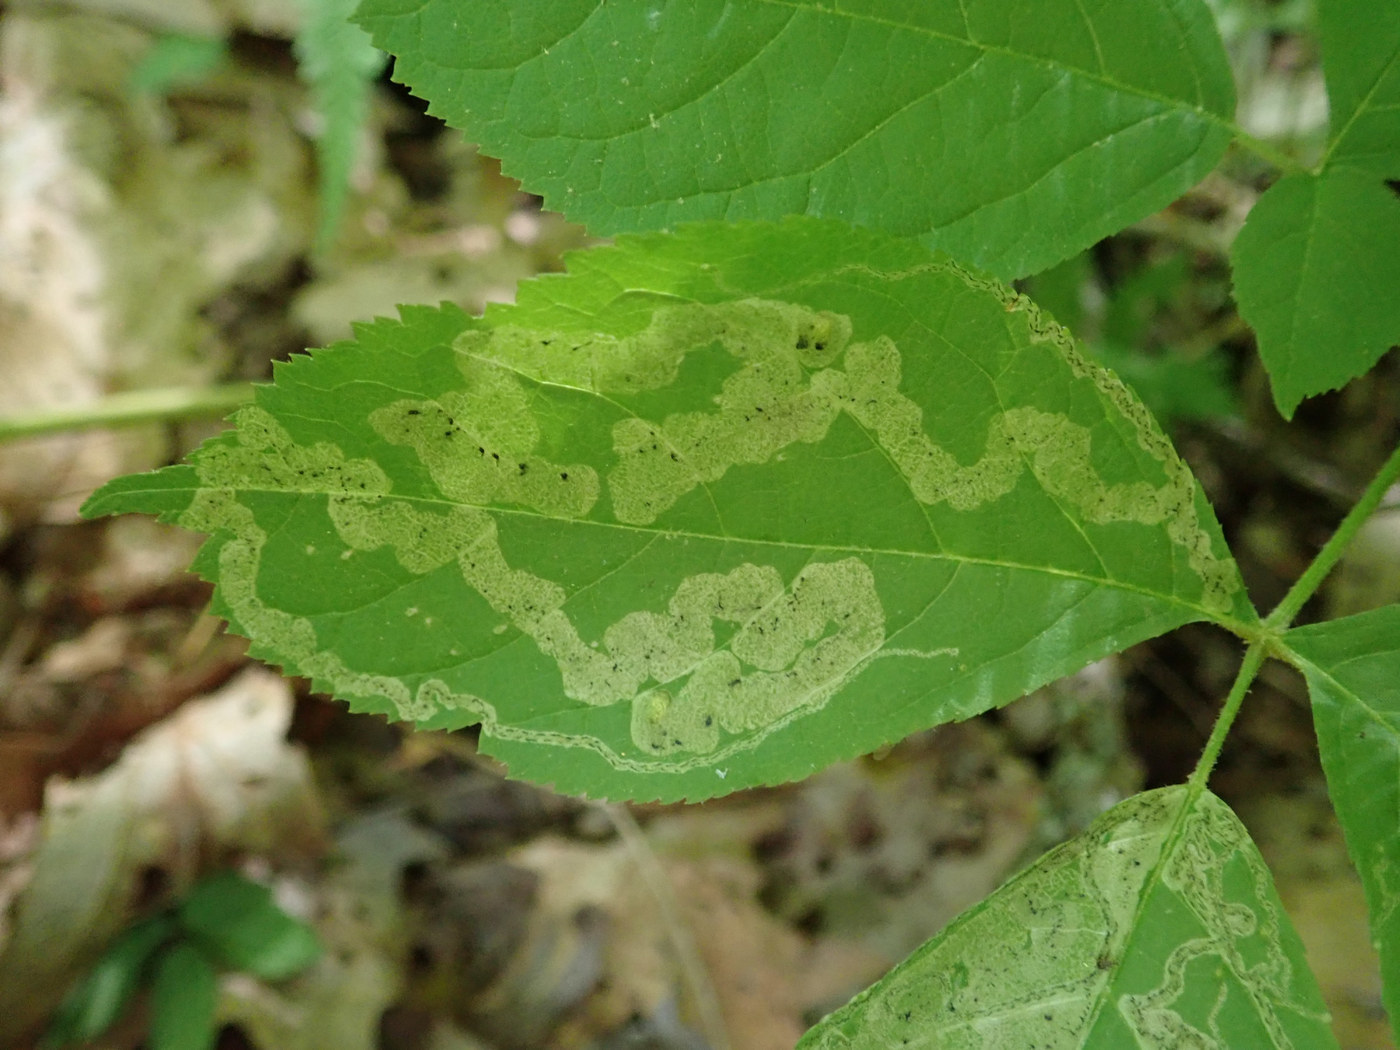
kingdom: Animalia
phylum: Arthropoda
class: Insecta
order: Diptera
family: Agromyzidae
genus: Phytomyza
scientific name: Phytomyza aralivora
